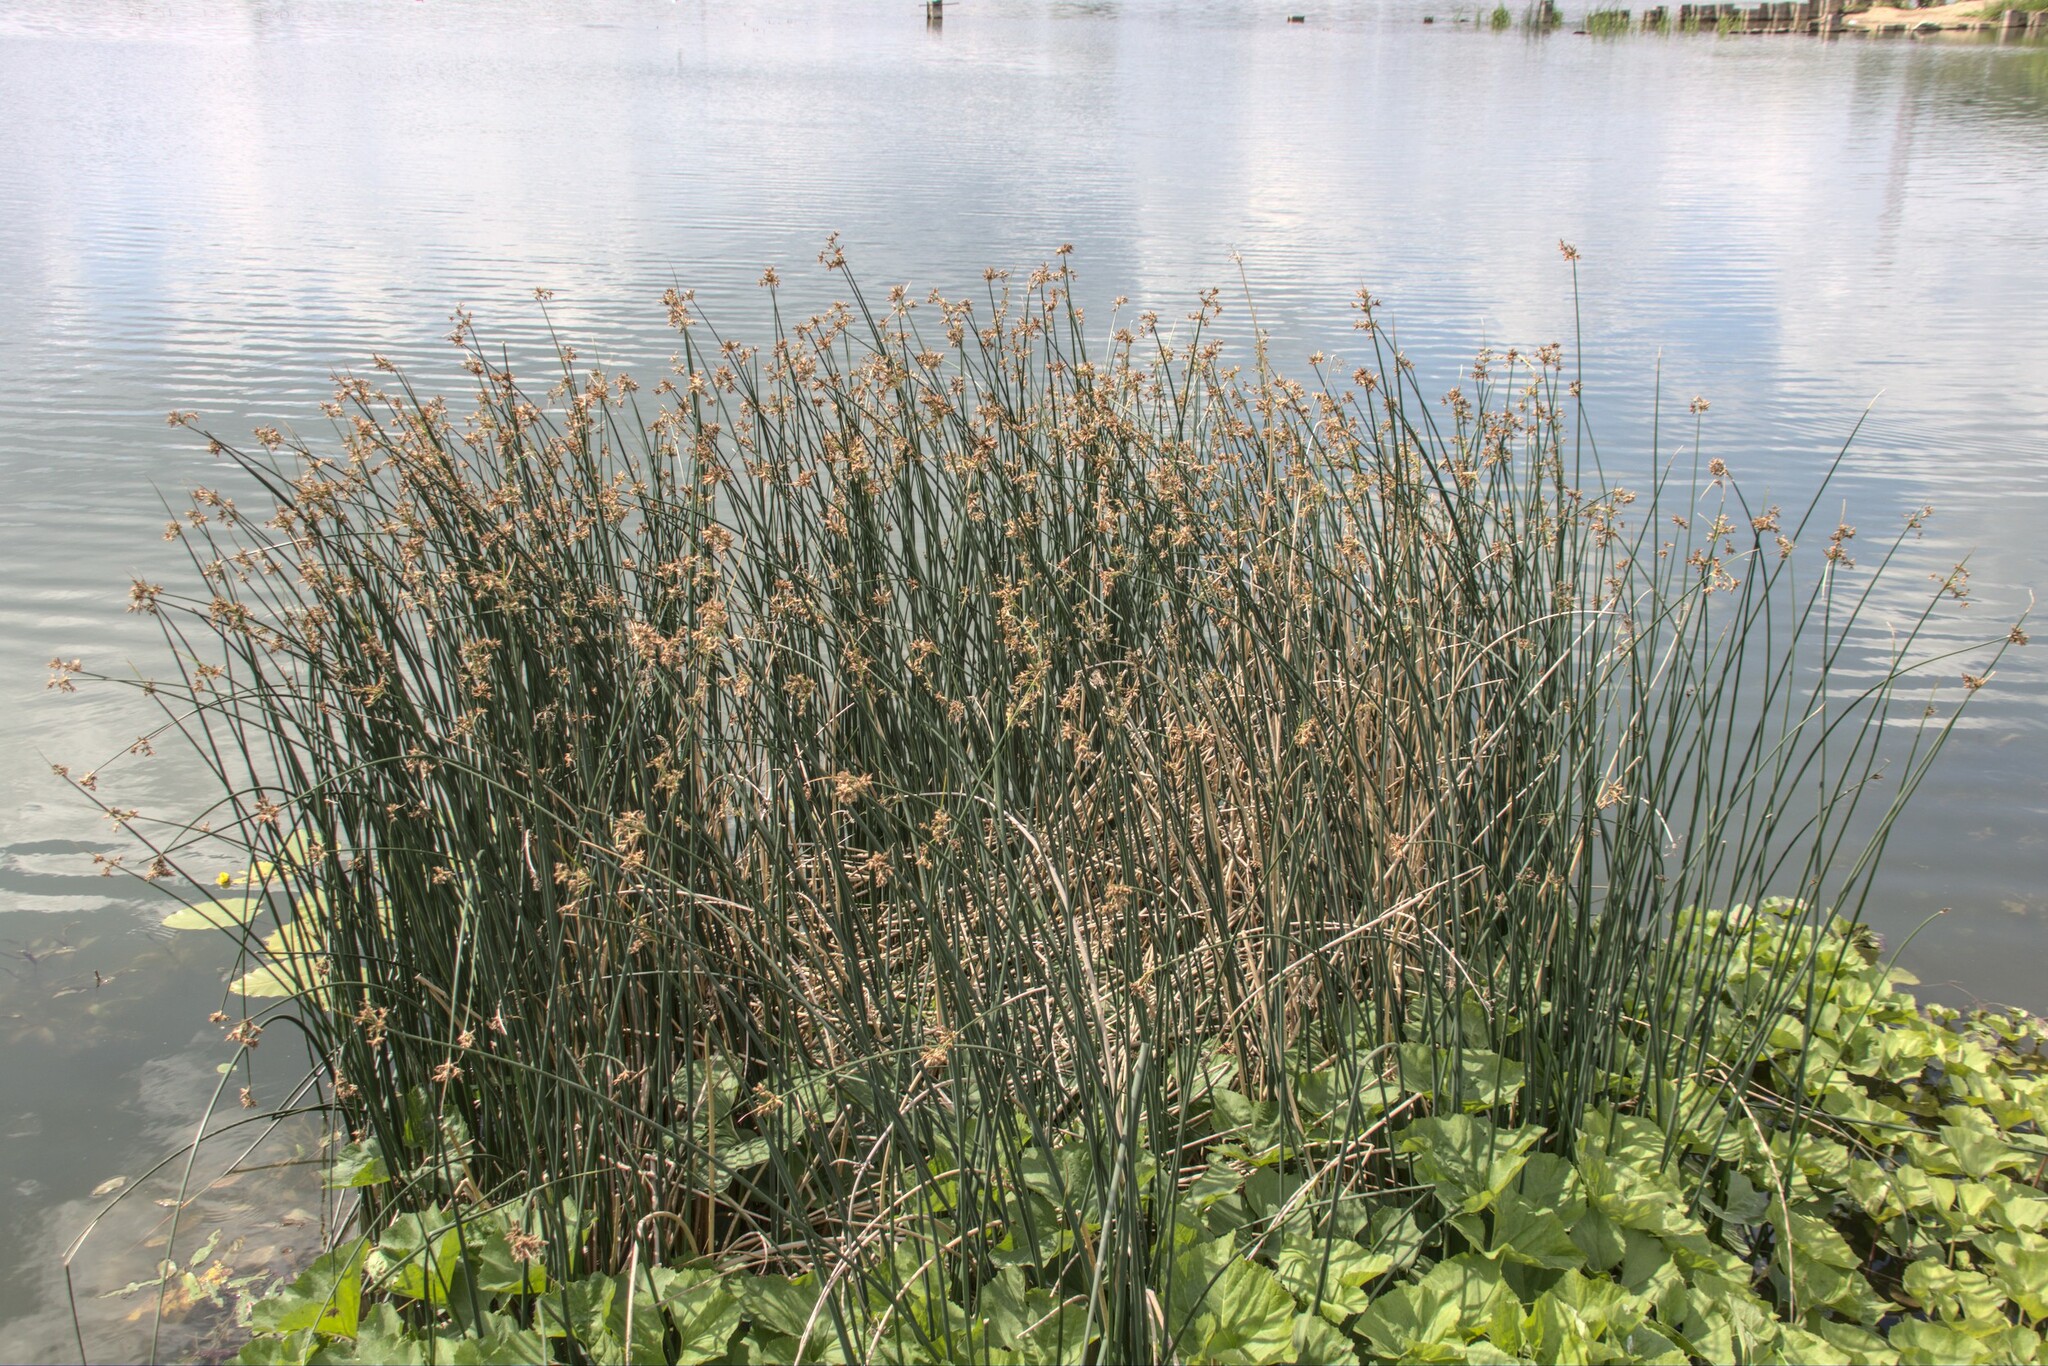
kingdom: Plantae
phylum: Tracheophyta
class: Liliopsida
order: Poales
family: Cyperaceae
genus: Schoenoplectus
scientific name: Schoenoplectus lacustris
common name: Common club-rush
